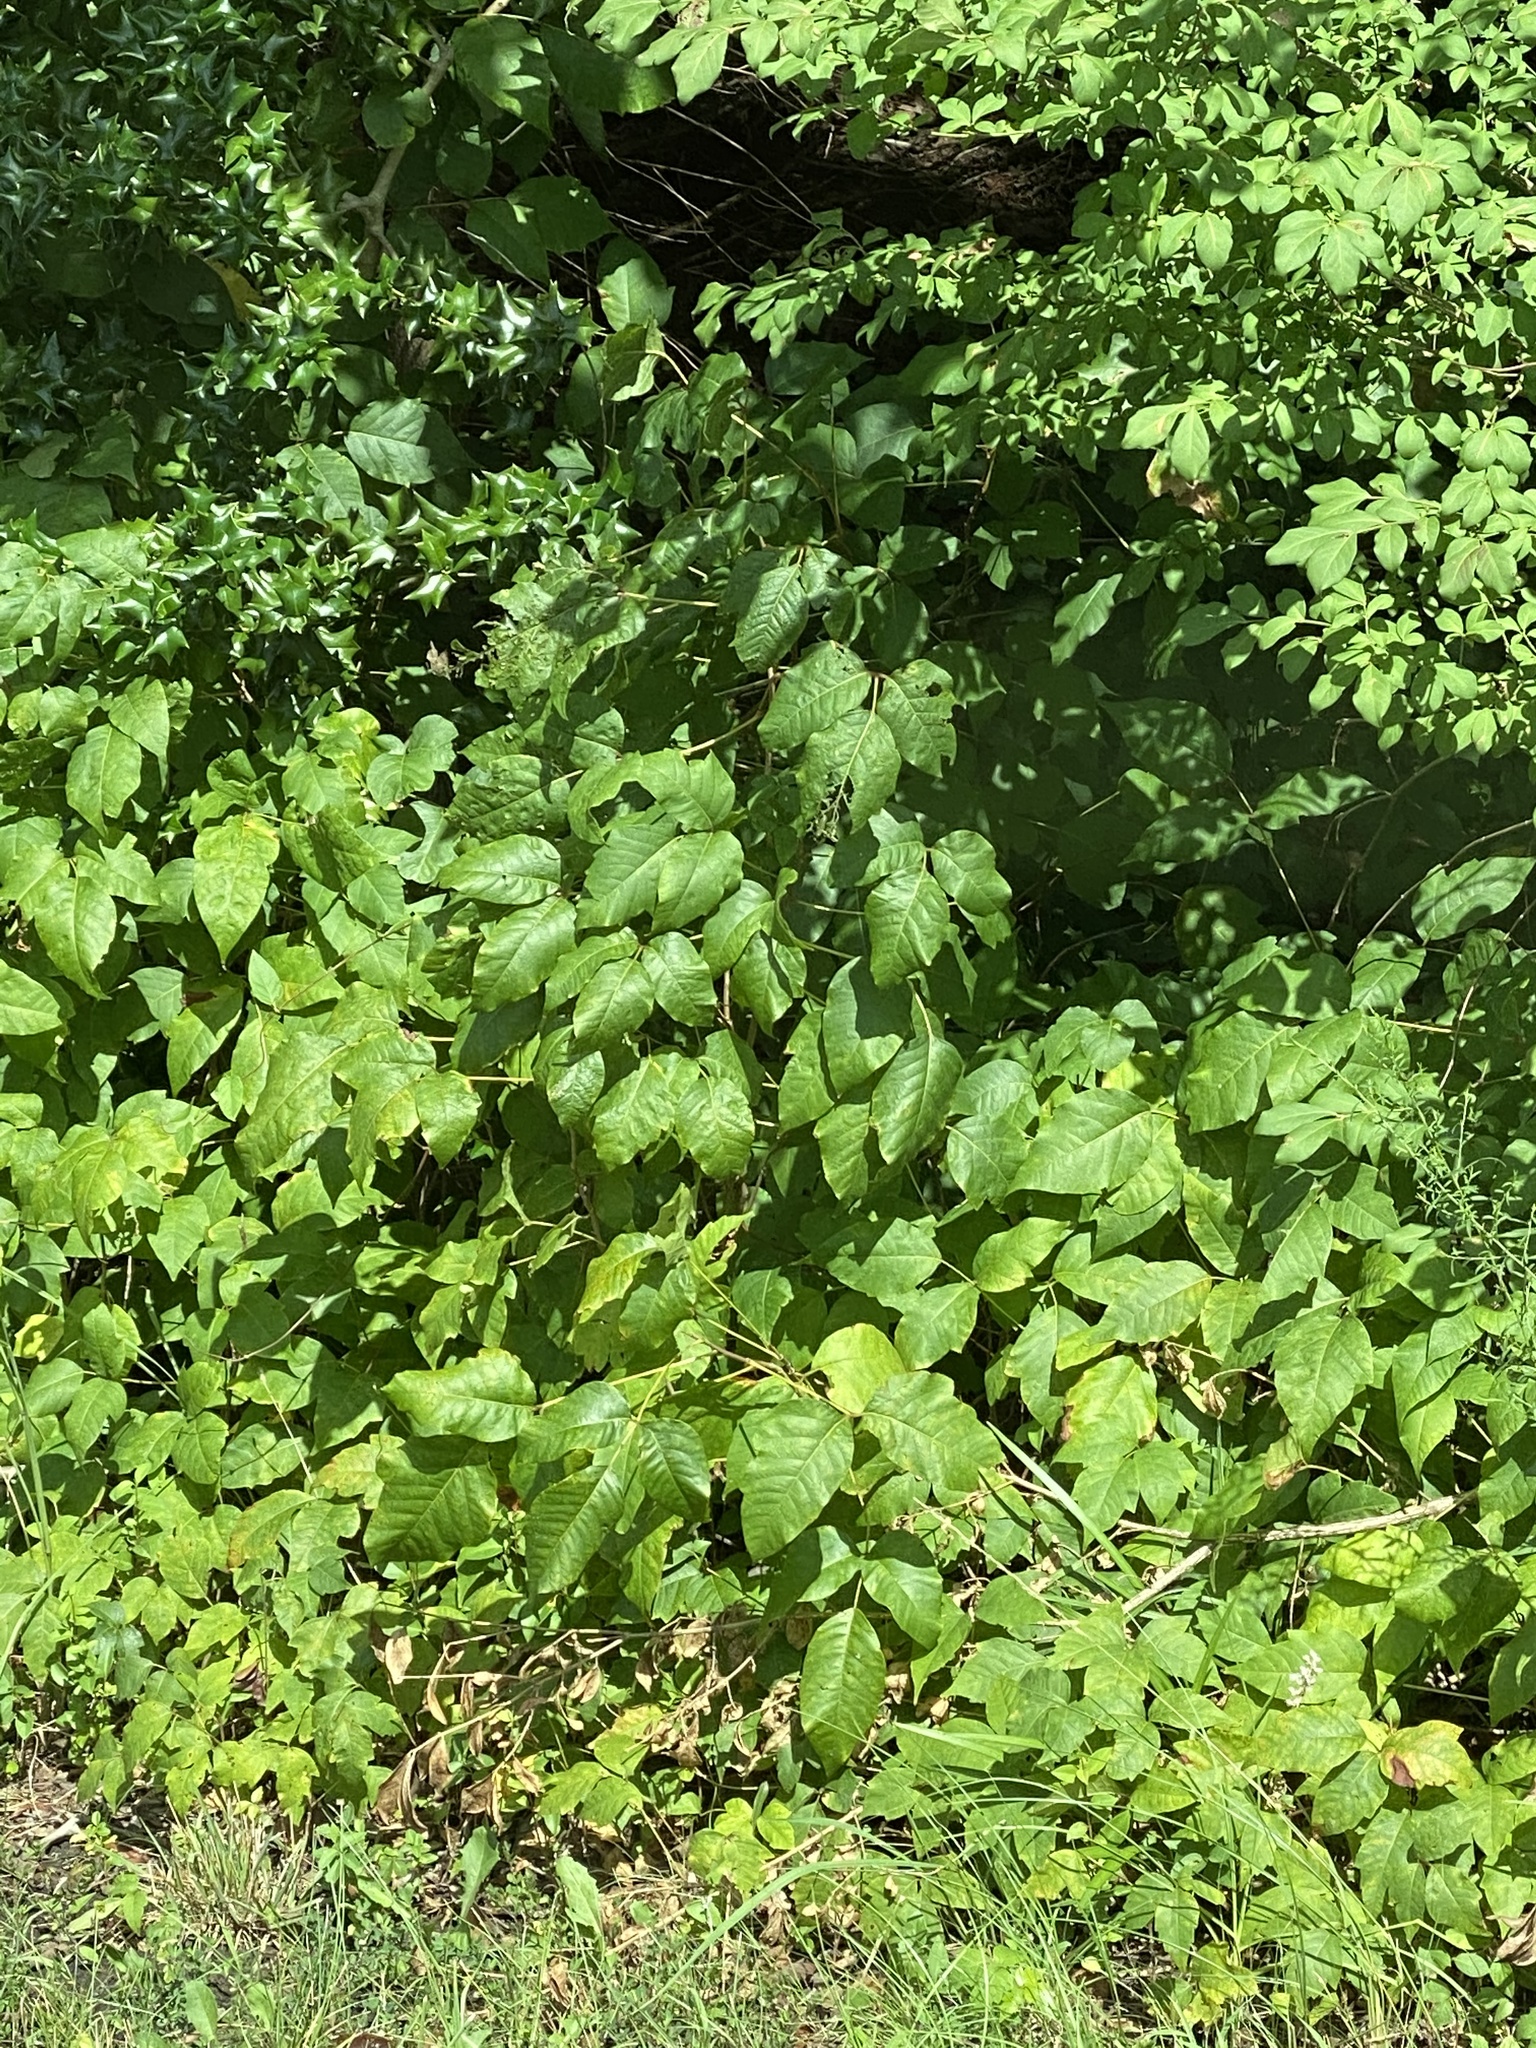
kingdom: Plantae
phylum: Tracheophyta
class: Magnoliopsida
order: Sapindales
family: Anacardiaceae
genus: Toxicodendron
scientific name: Toxicodendron radicans
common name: Poison ivy
